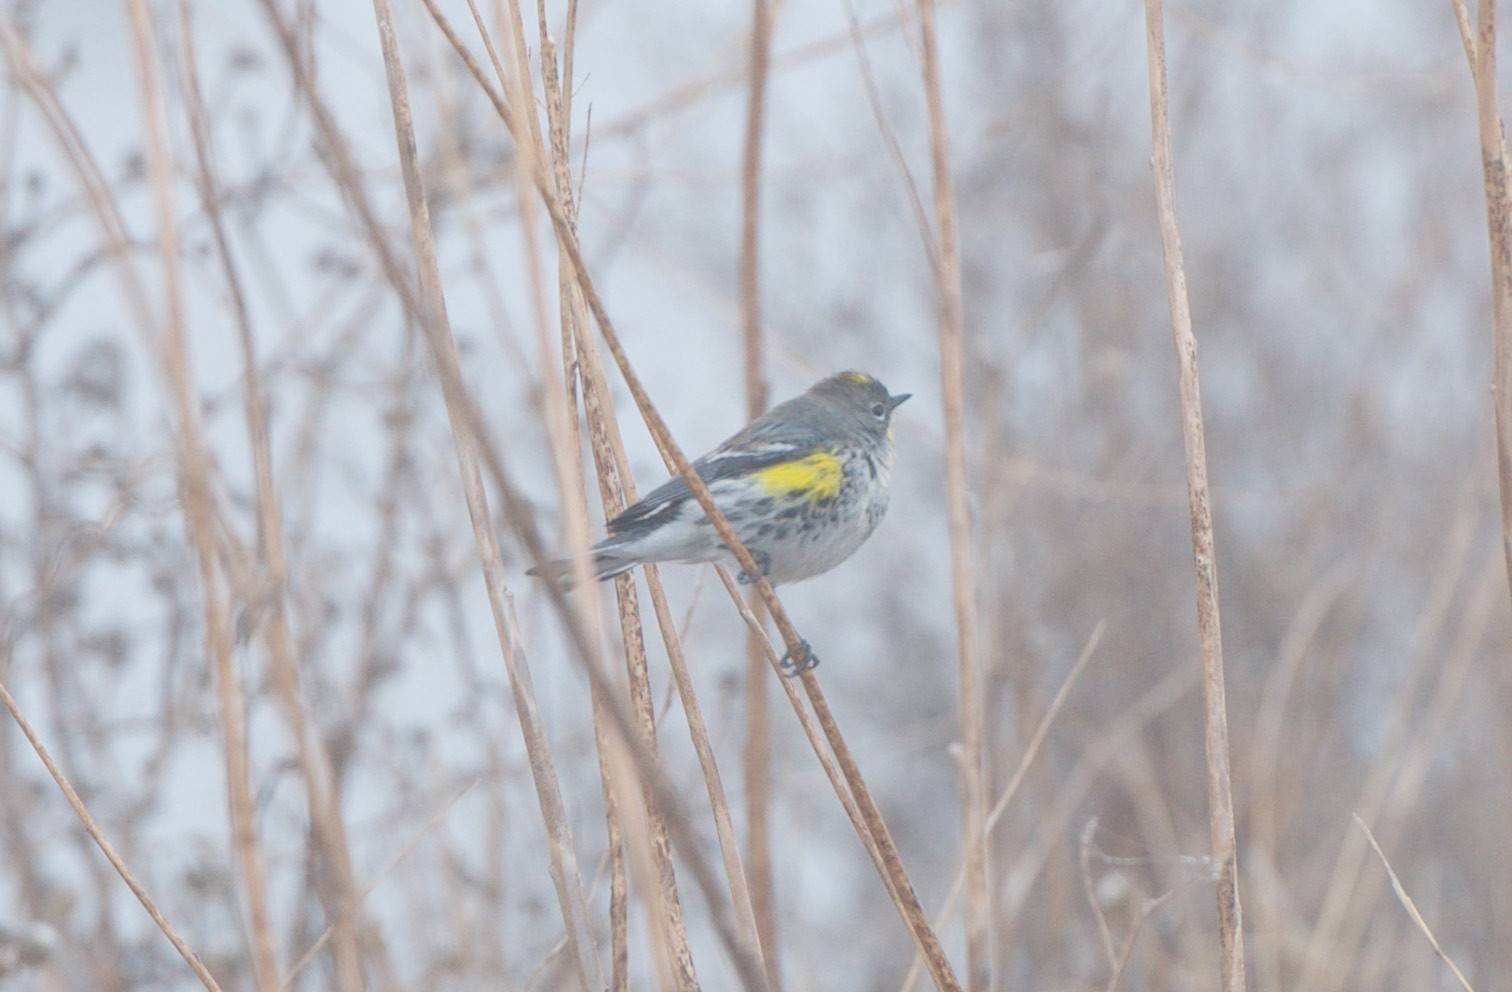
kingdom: Animalia
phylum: Chordata
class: Aves
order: Passeriformes
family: Parulidae
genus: Setophaga
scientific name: Setophaga coronata
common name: Myrtle warbler
